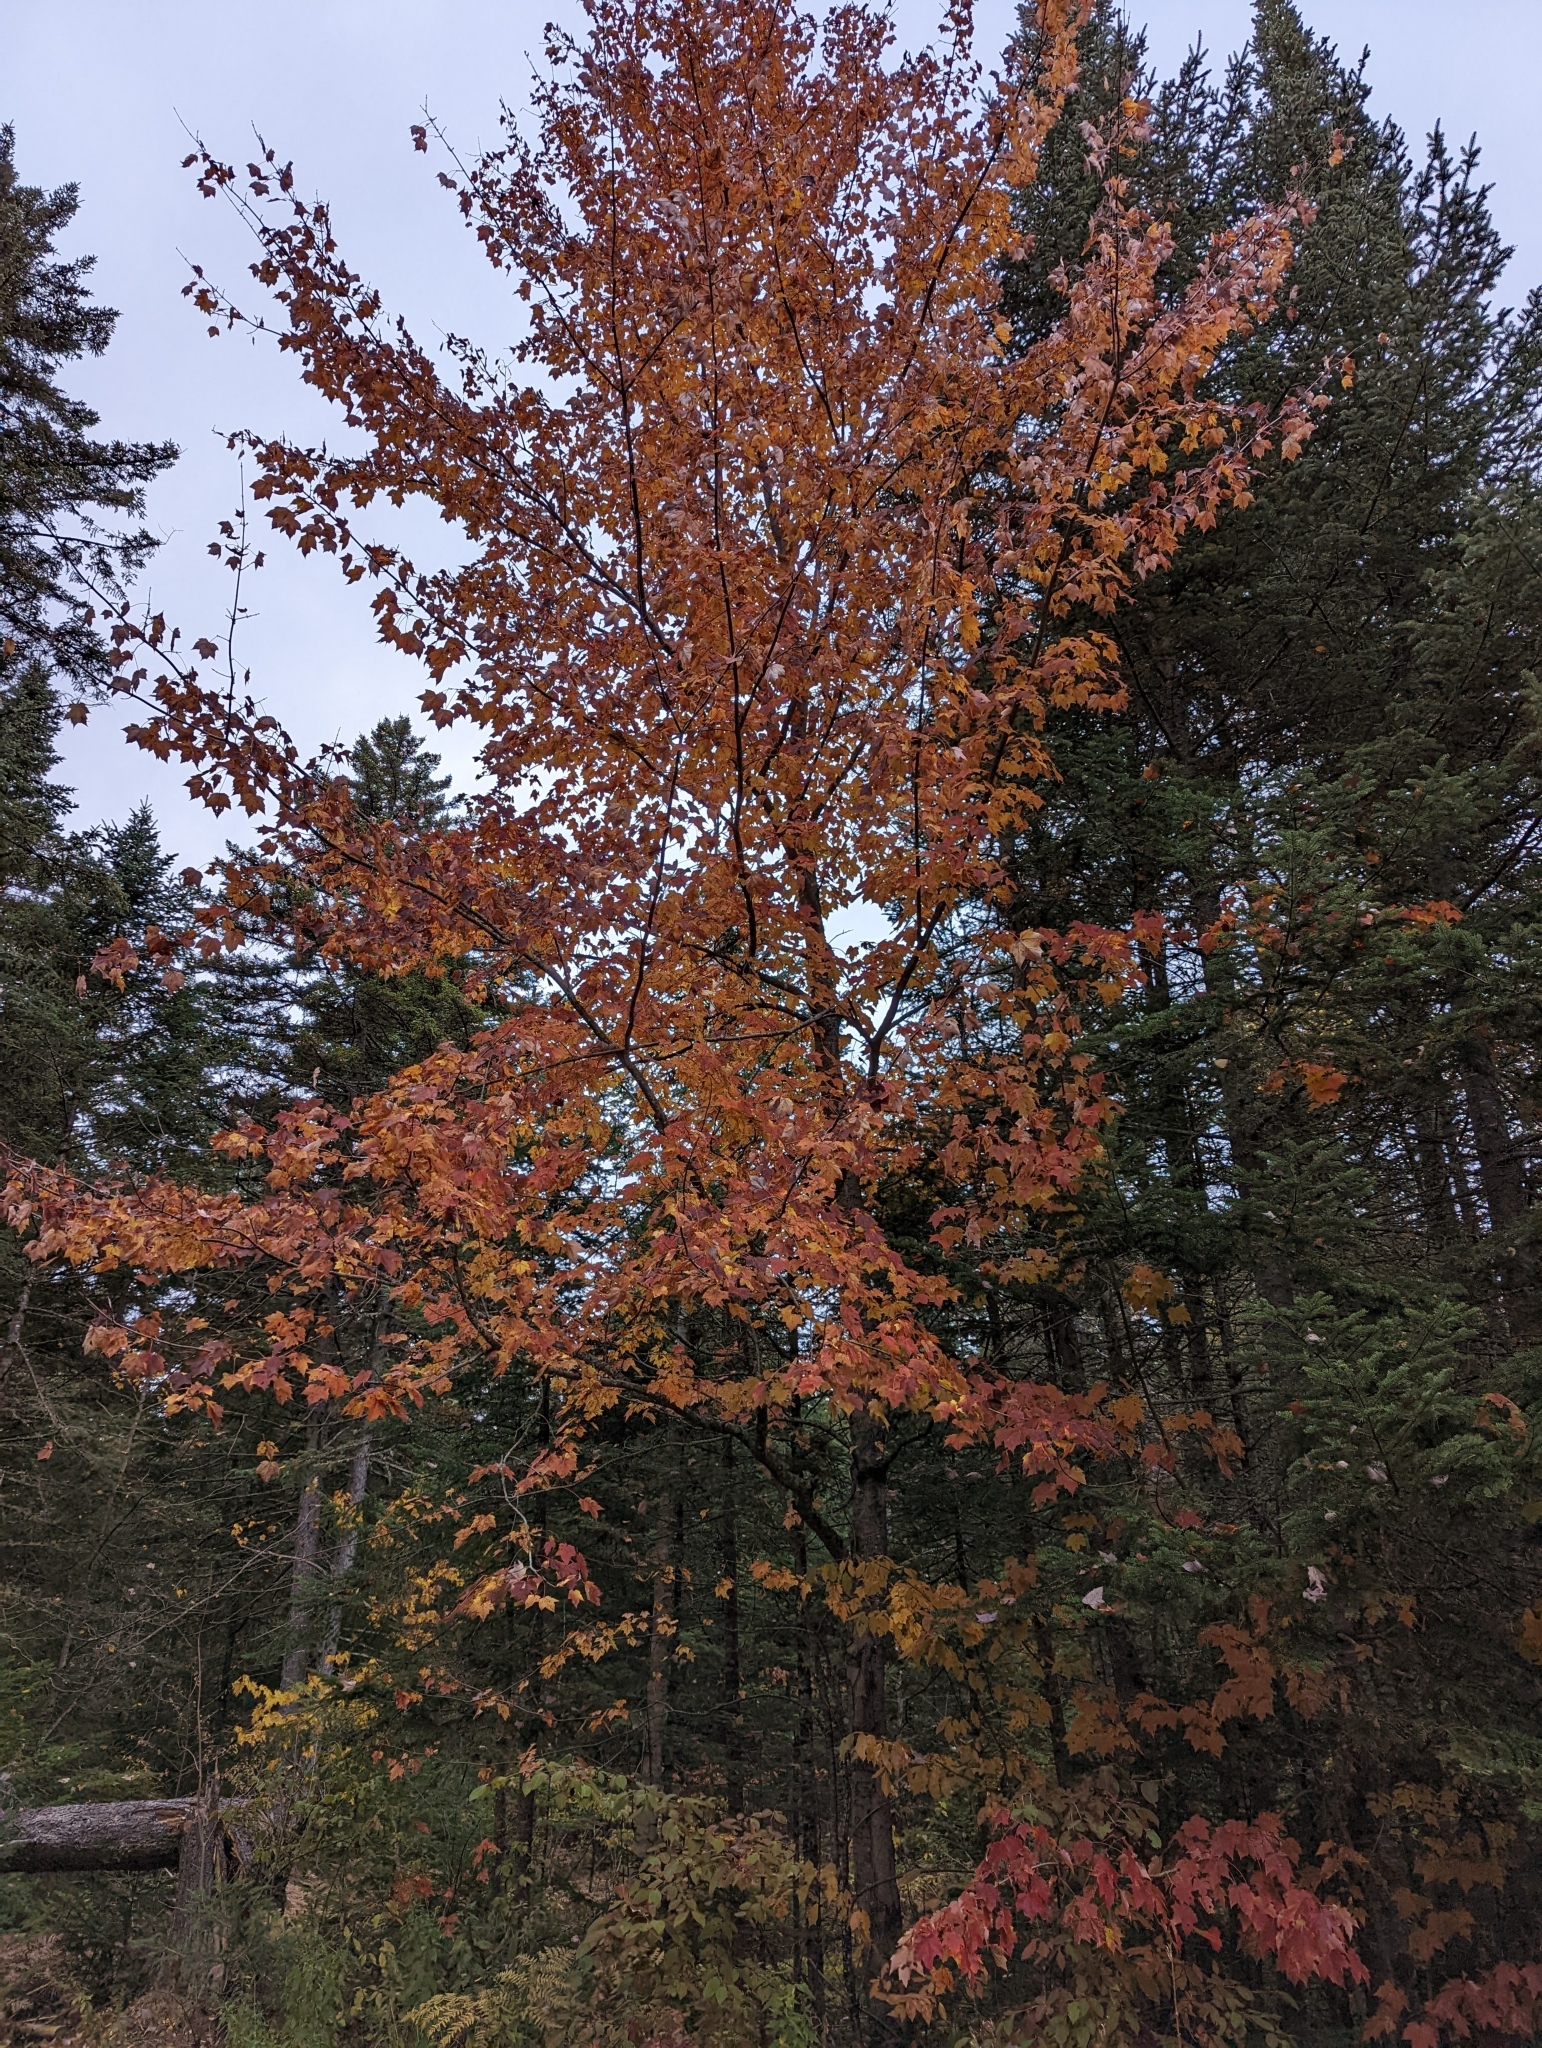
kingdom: Plantae
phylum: Tracheophyta
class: Magnoliopsida
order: Sapindales
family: Sapindaceae
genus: Acer
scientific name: Acer rubrum
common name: Red maple
